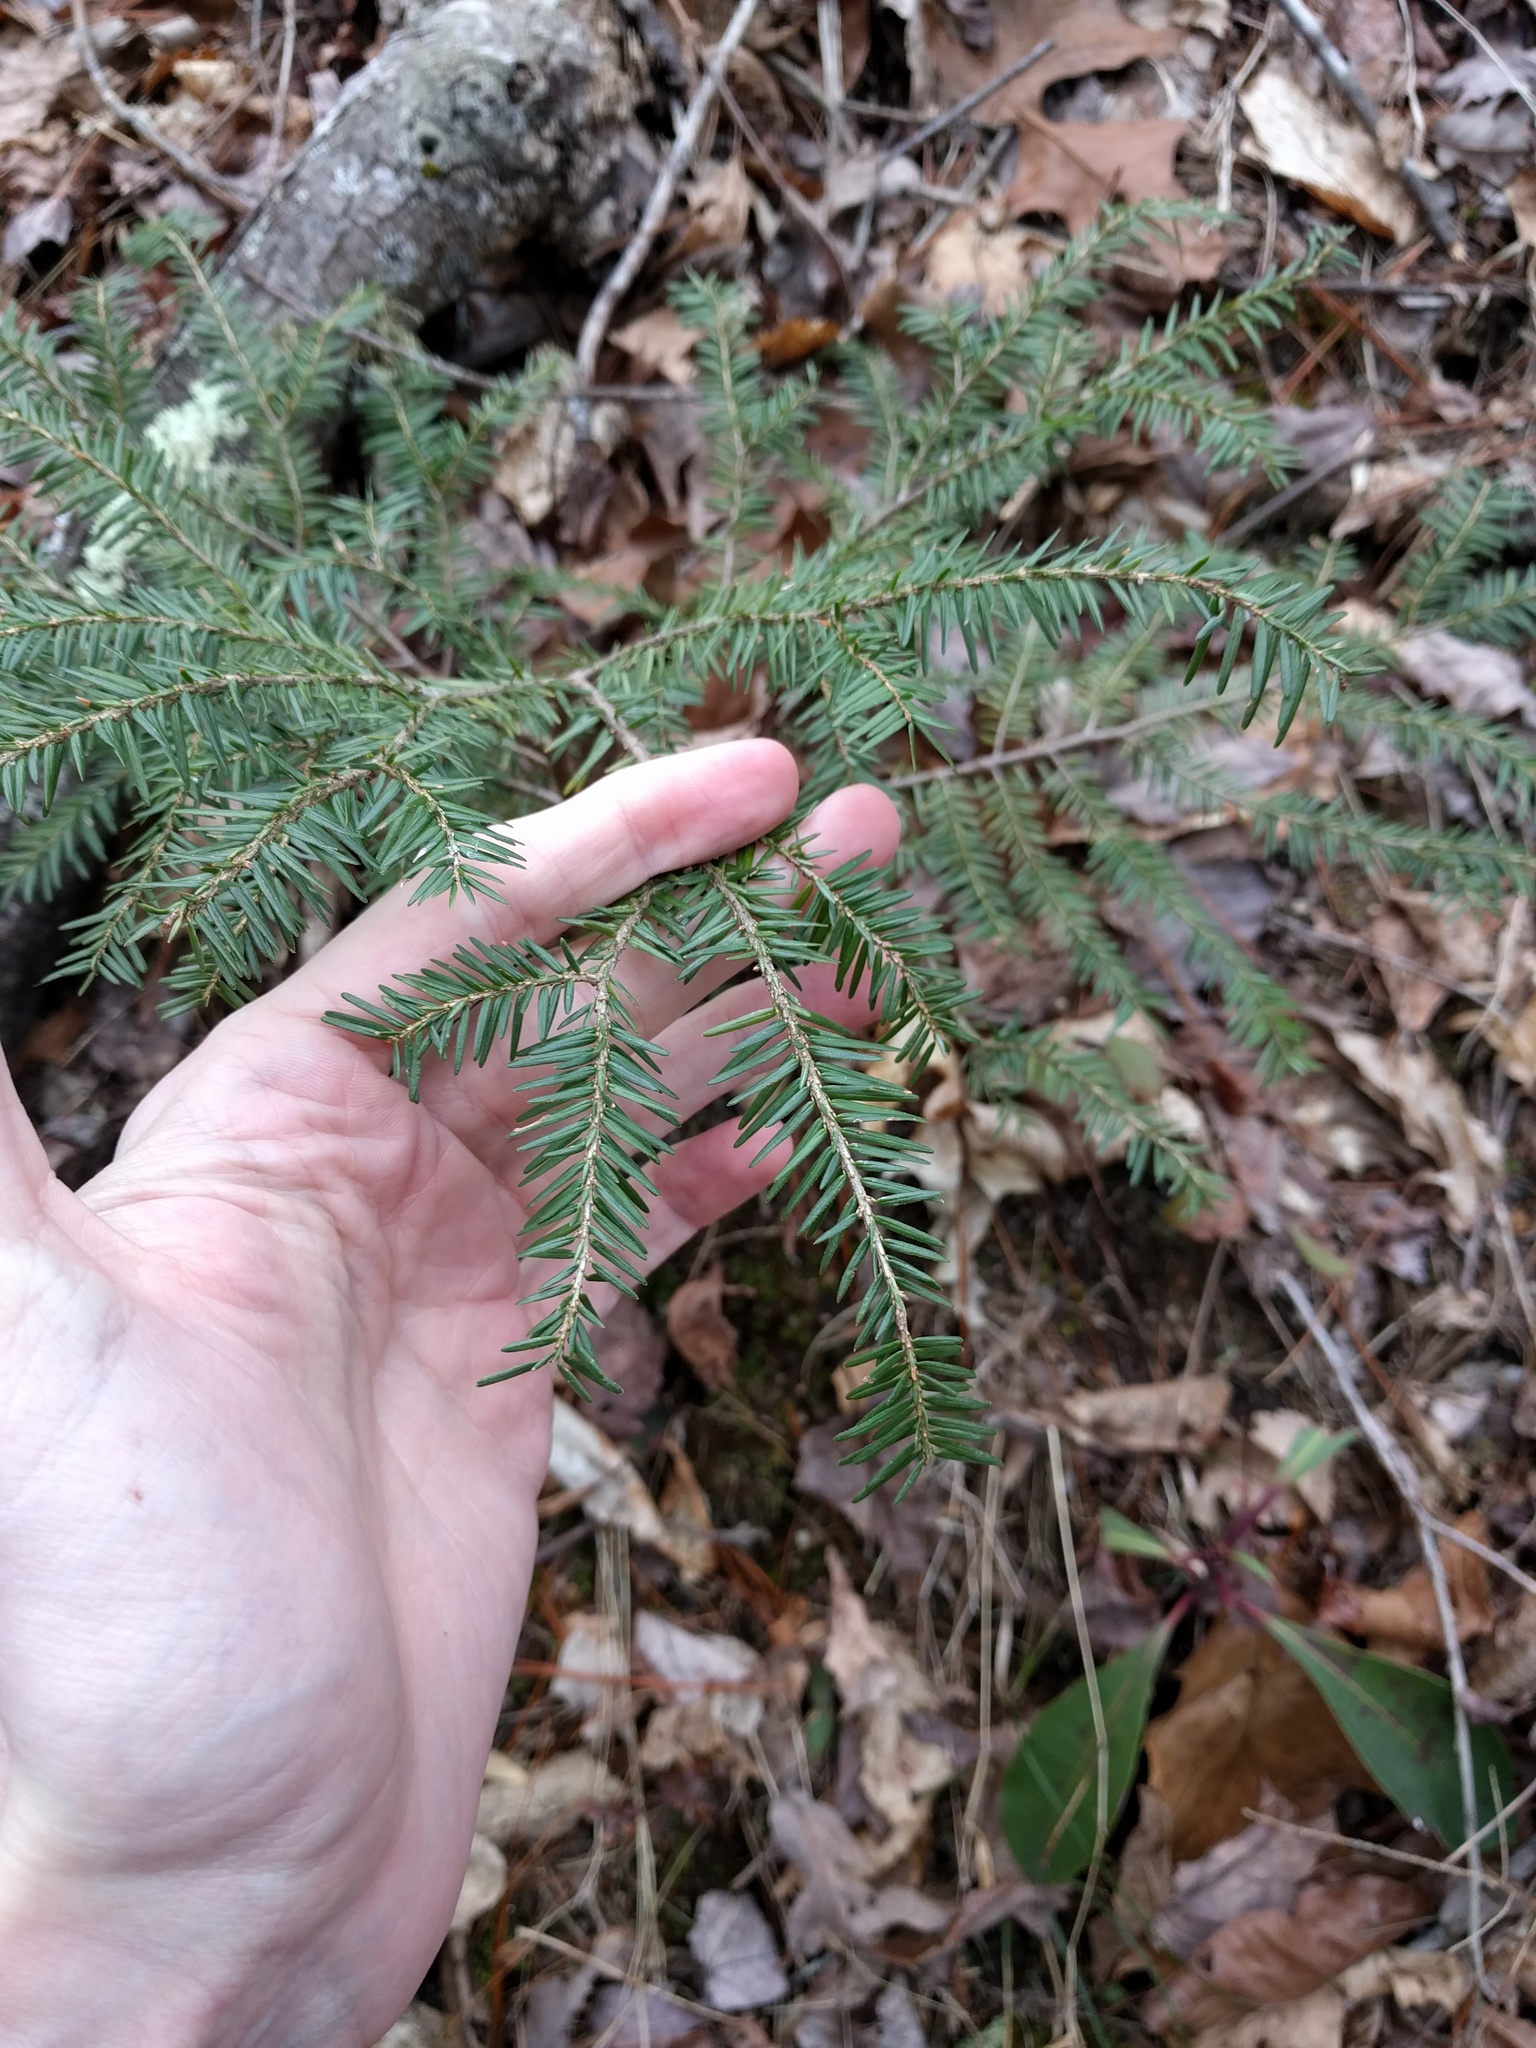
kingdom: Plantae
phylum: Tracheophyta
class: Pinopsida
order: Pinales
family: Pinaceae
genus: Tsuga
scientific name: Tsuga canadensis
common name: Eastern hemlock
